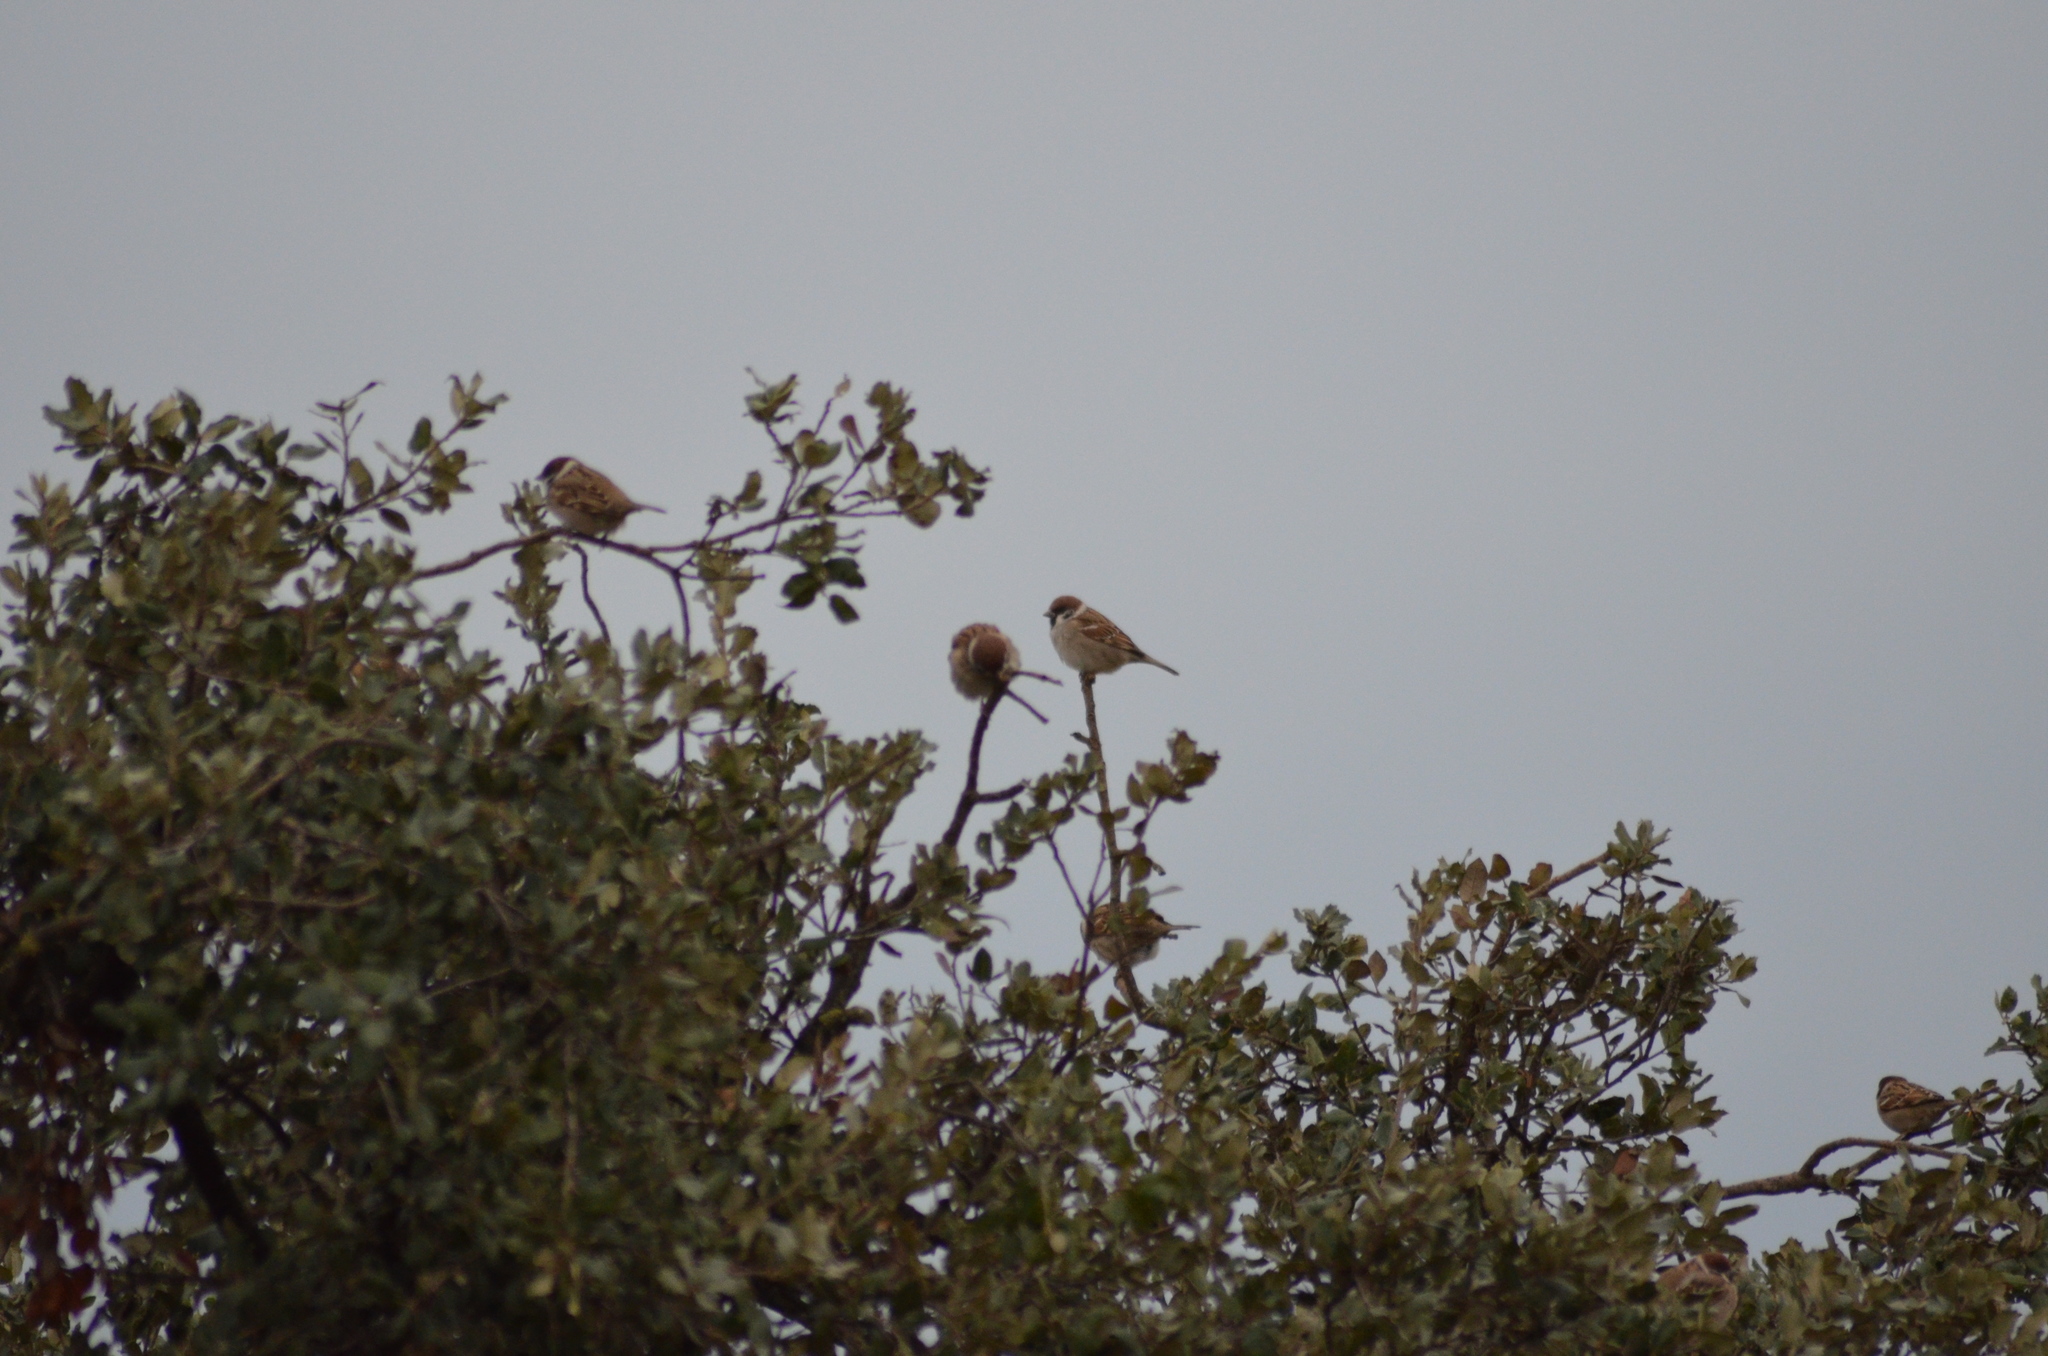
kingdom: Animalia
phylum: Chordata
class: Aves
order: Passeriformes
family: Passeridae
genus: Passer
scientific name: Passer montanus
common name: Eurasian tree sparrow
